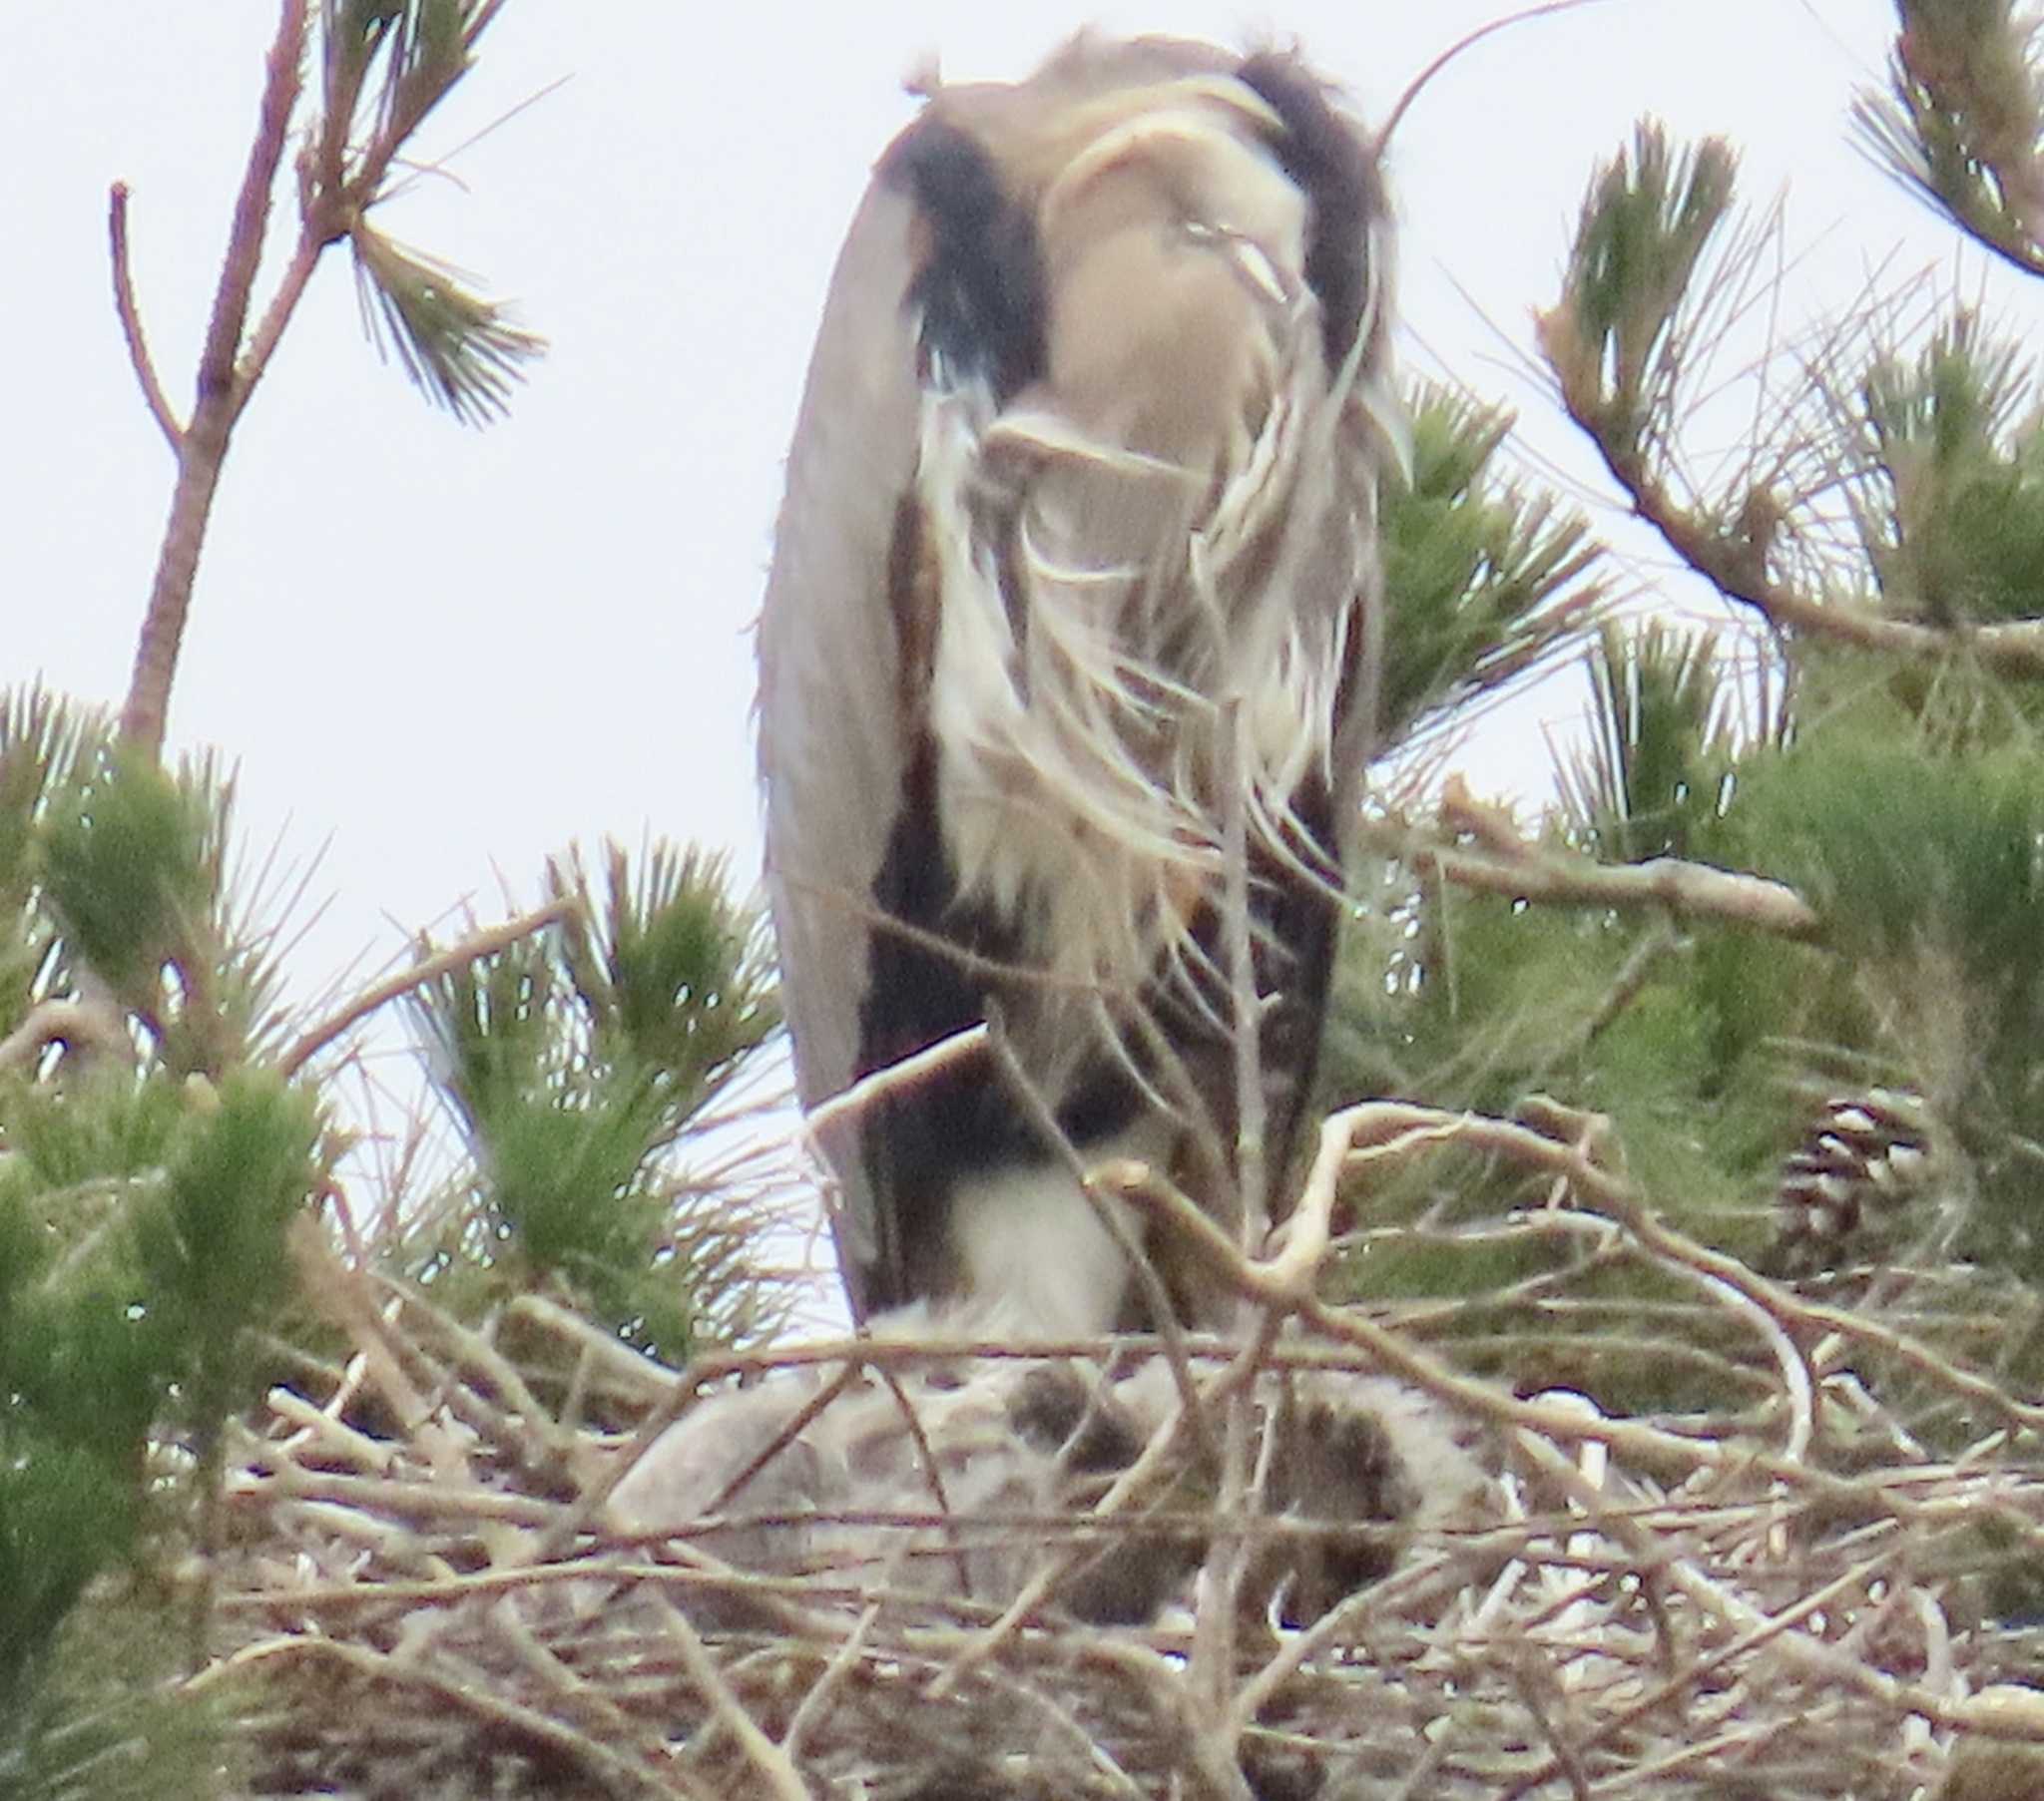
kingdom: Animalia
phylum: Chordata
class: Aves
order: Pelecaniformes
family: Ardeidae
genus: Ardea
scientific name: Ardea herodias
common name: Great blue heron
